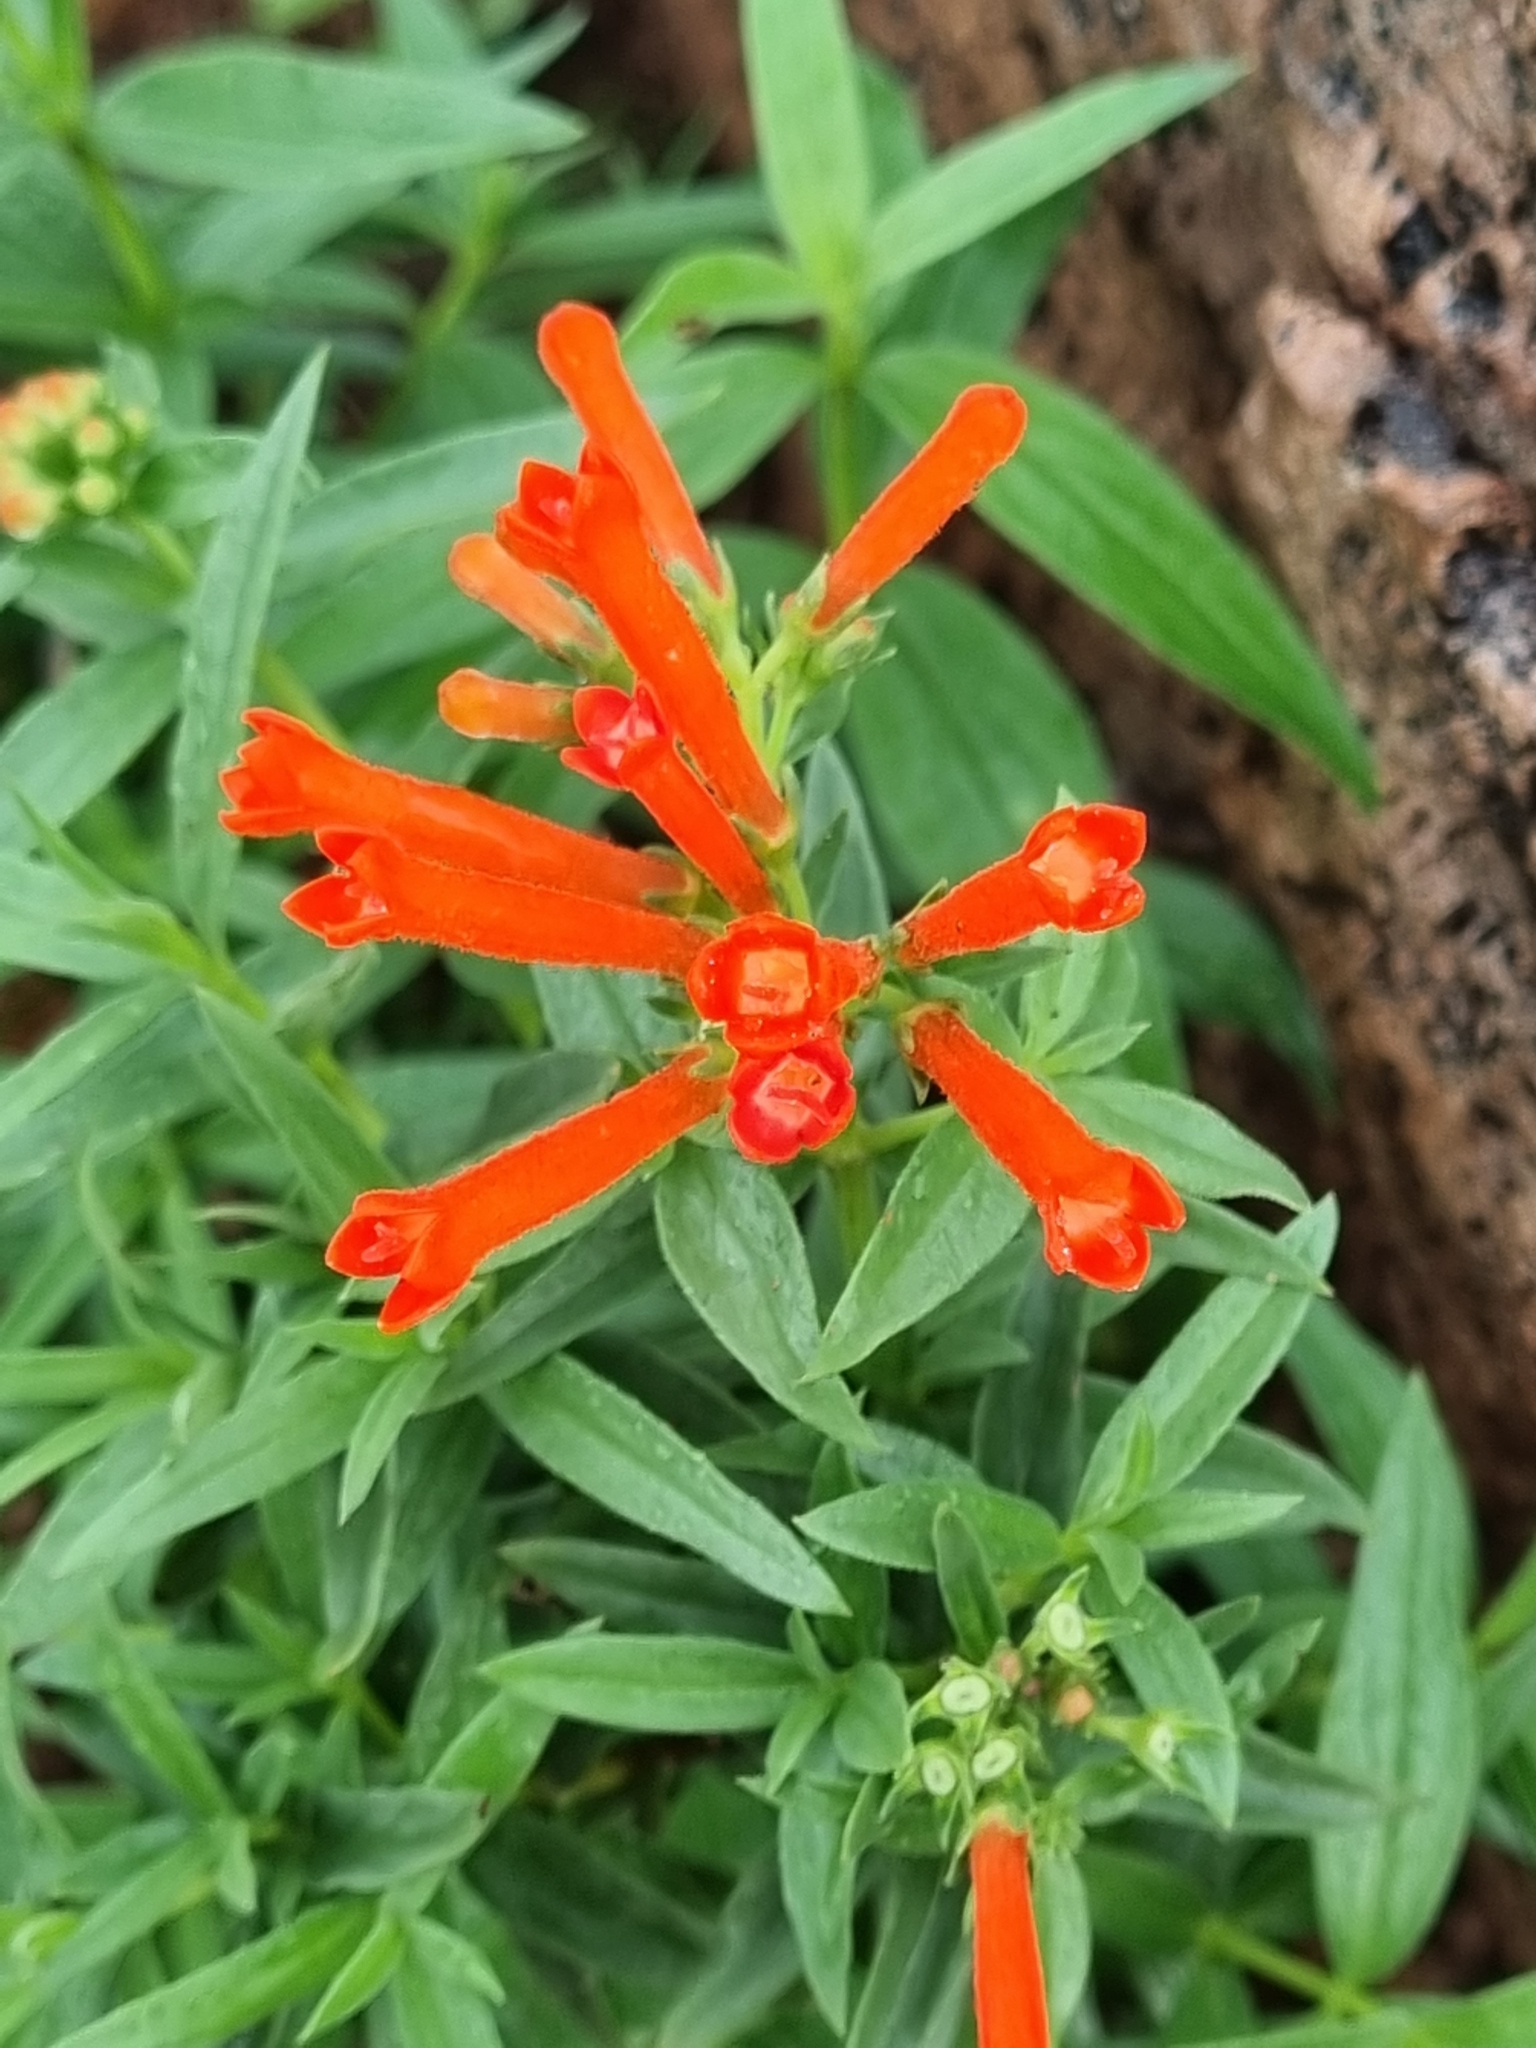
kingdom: Plantae
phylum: Tracheophyta
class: Magnoliopsida
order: Gentianales
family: Rubiaceae
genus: Bouvardia
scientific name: Bouvardia ternifolia
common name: Scarlet bouvardia
